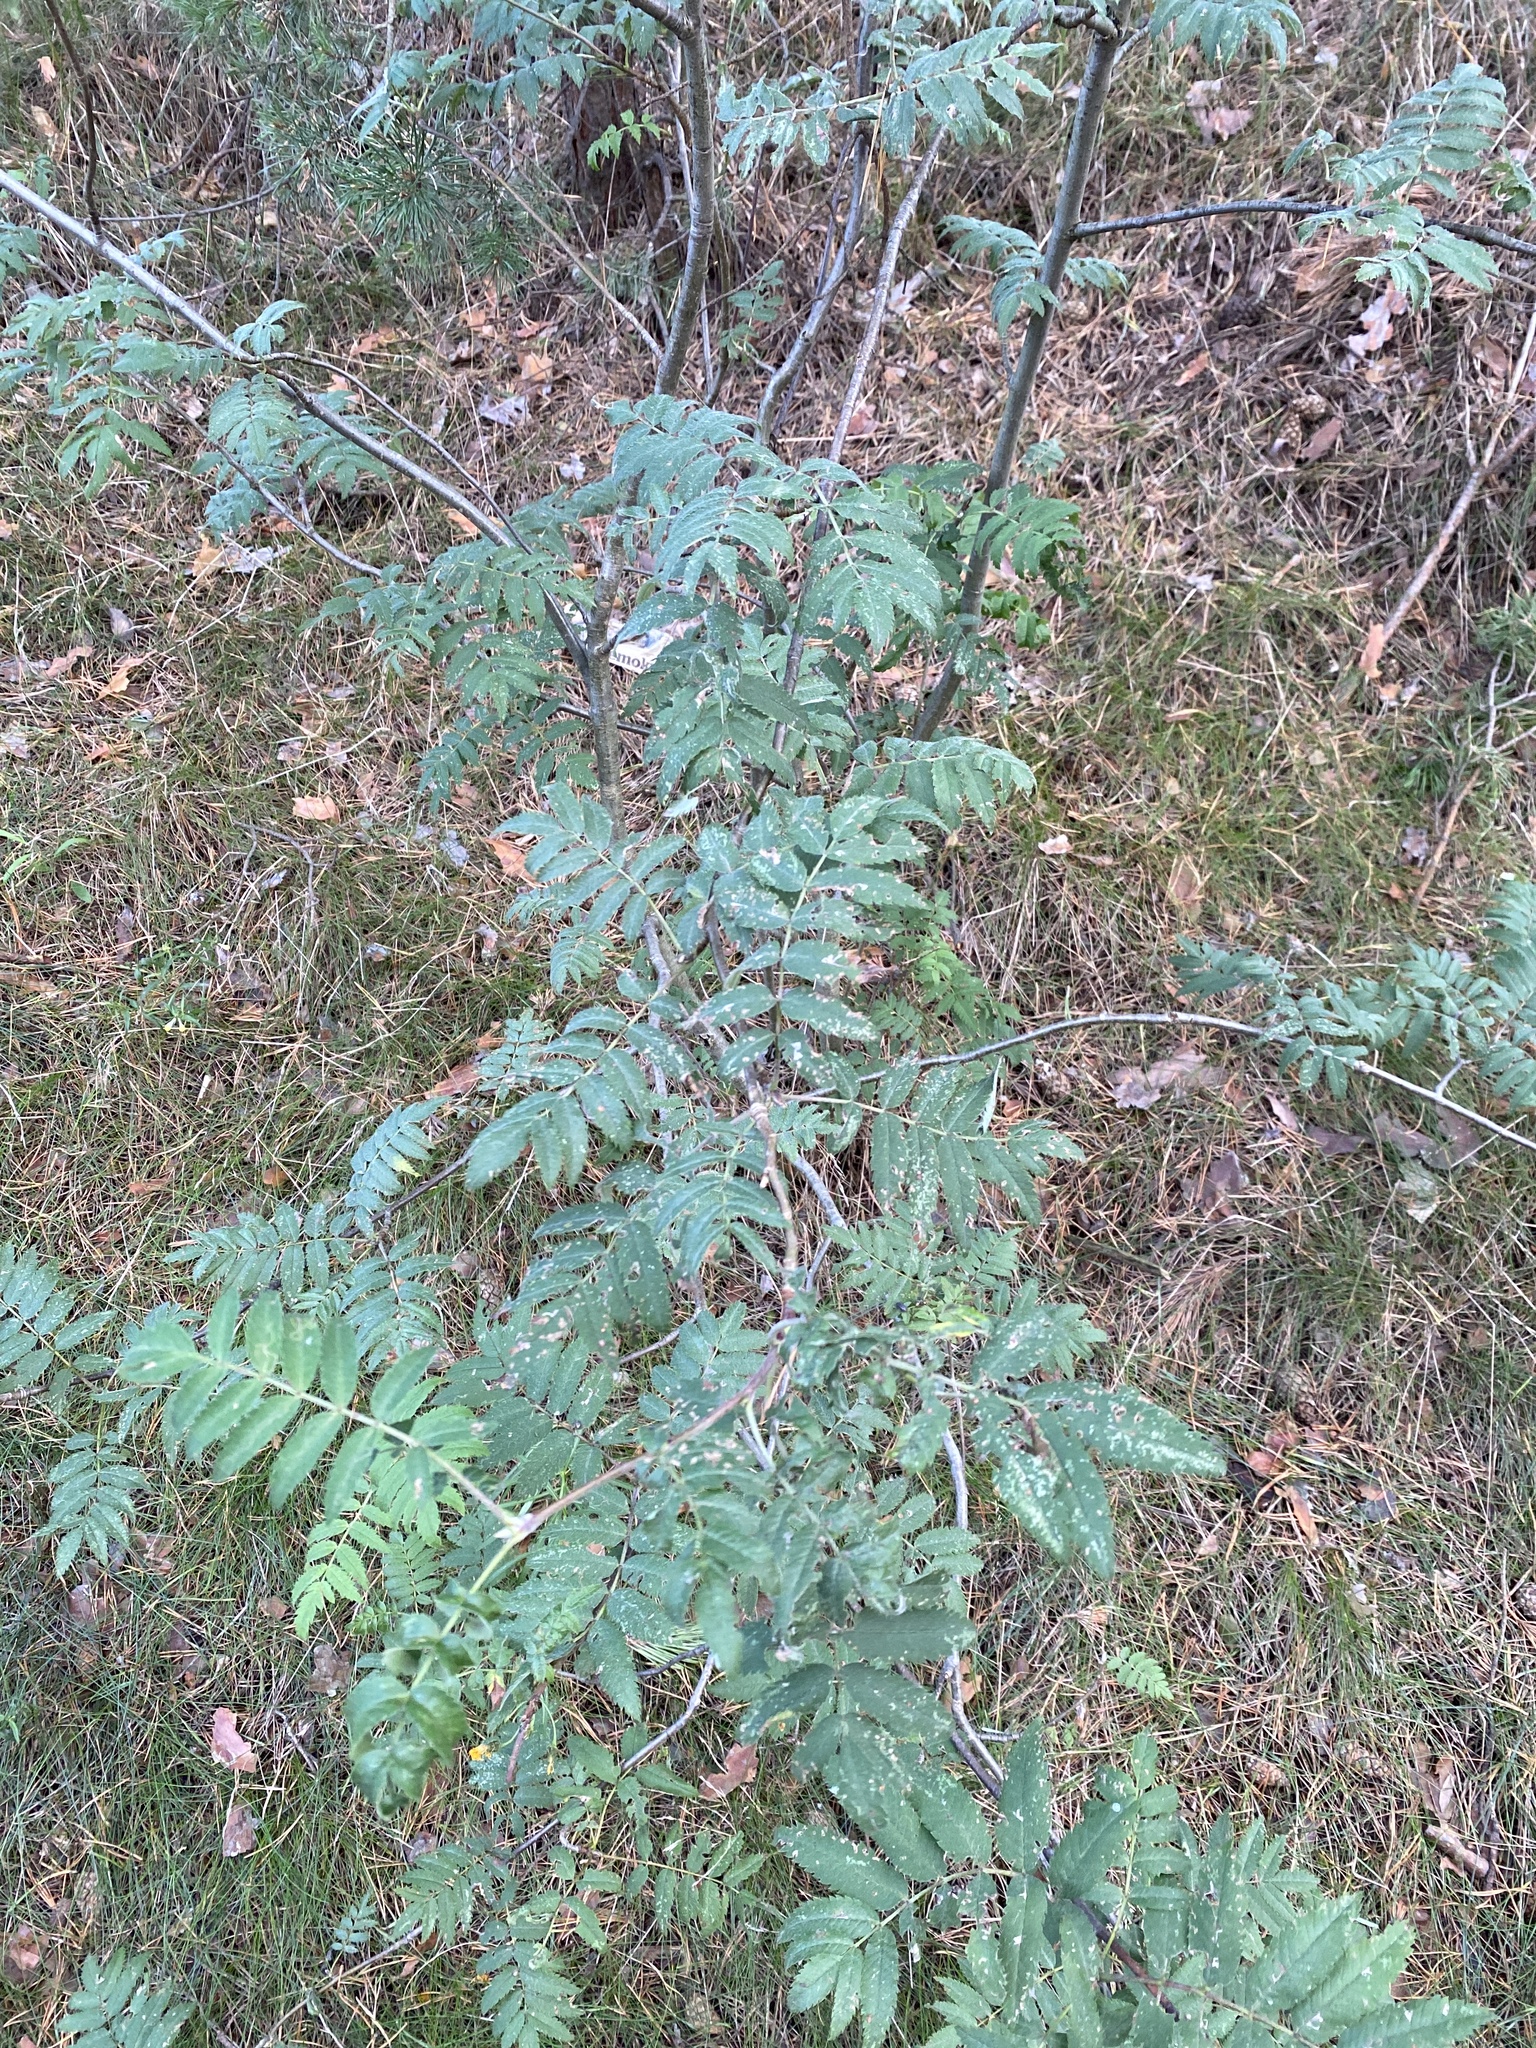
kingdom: Plantae
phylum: Tracheophyta
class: Magnoliopsida
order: Rosales
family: Rosaceae
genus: Sorbus
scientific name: Sorbus aucuparia
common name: Rowan
